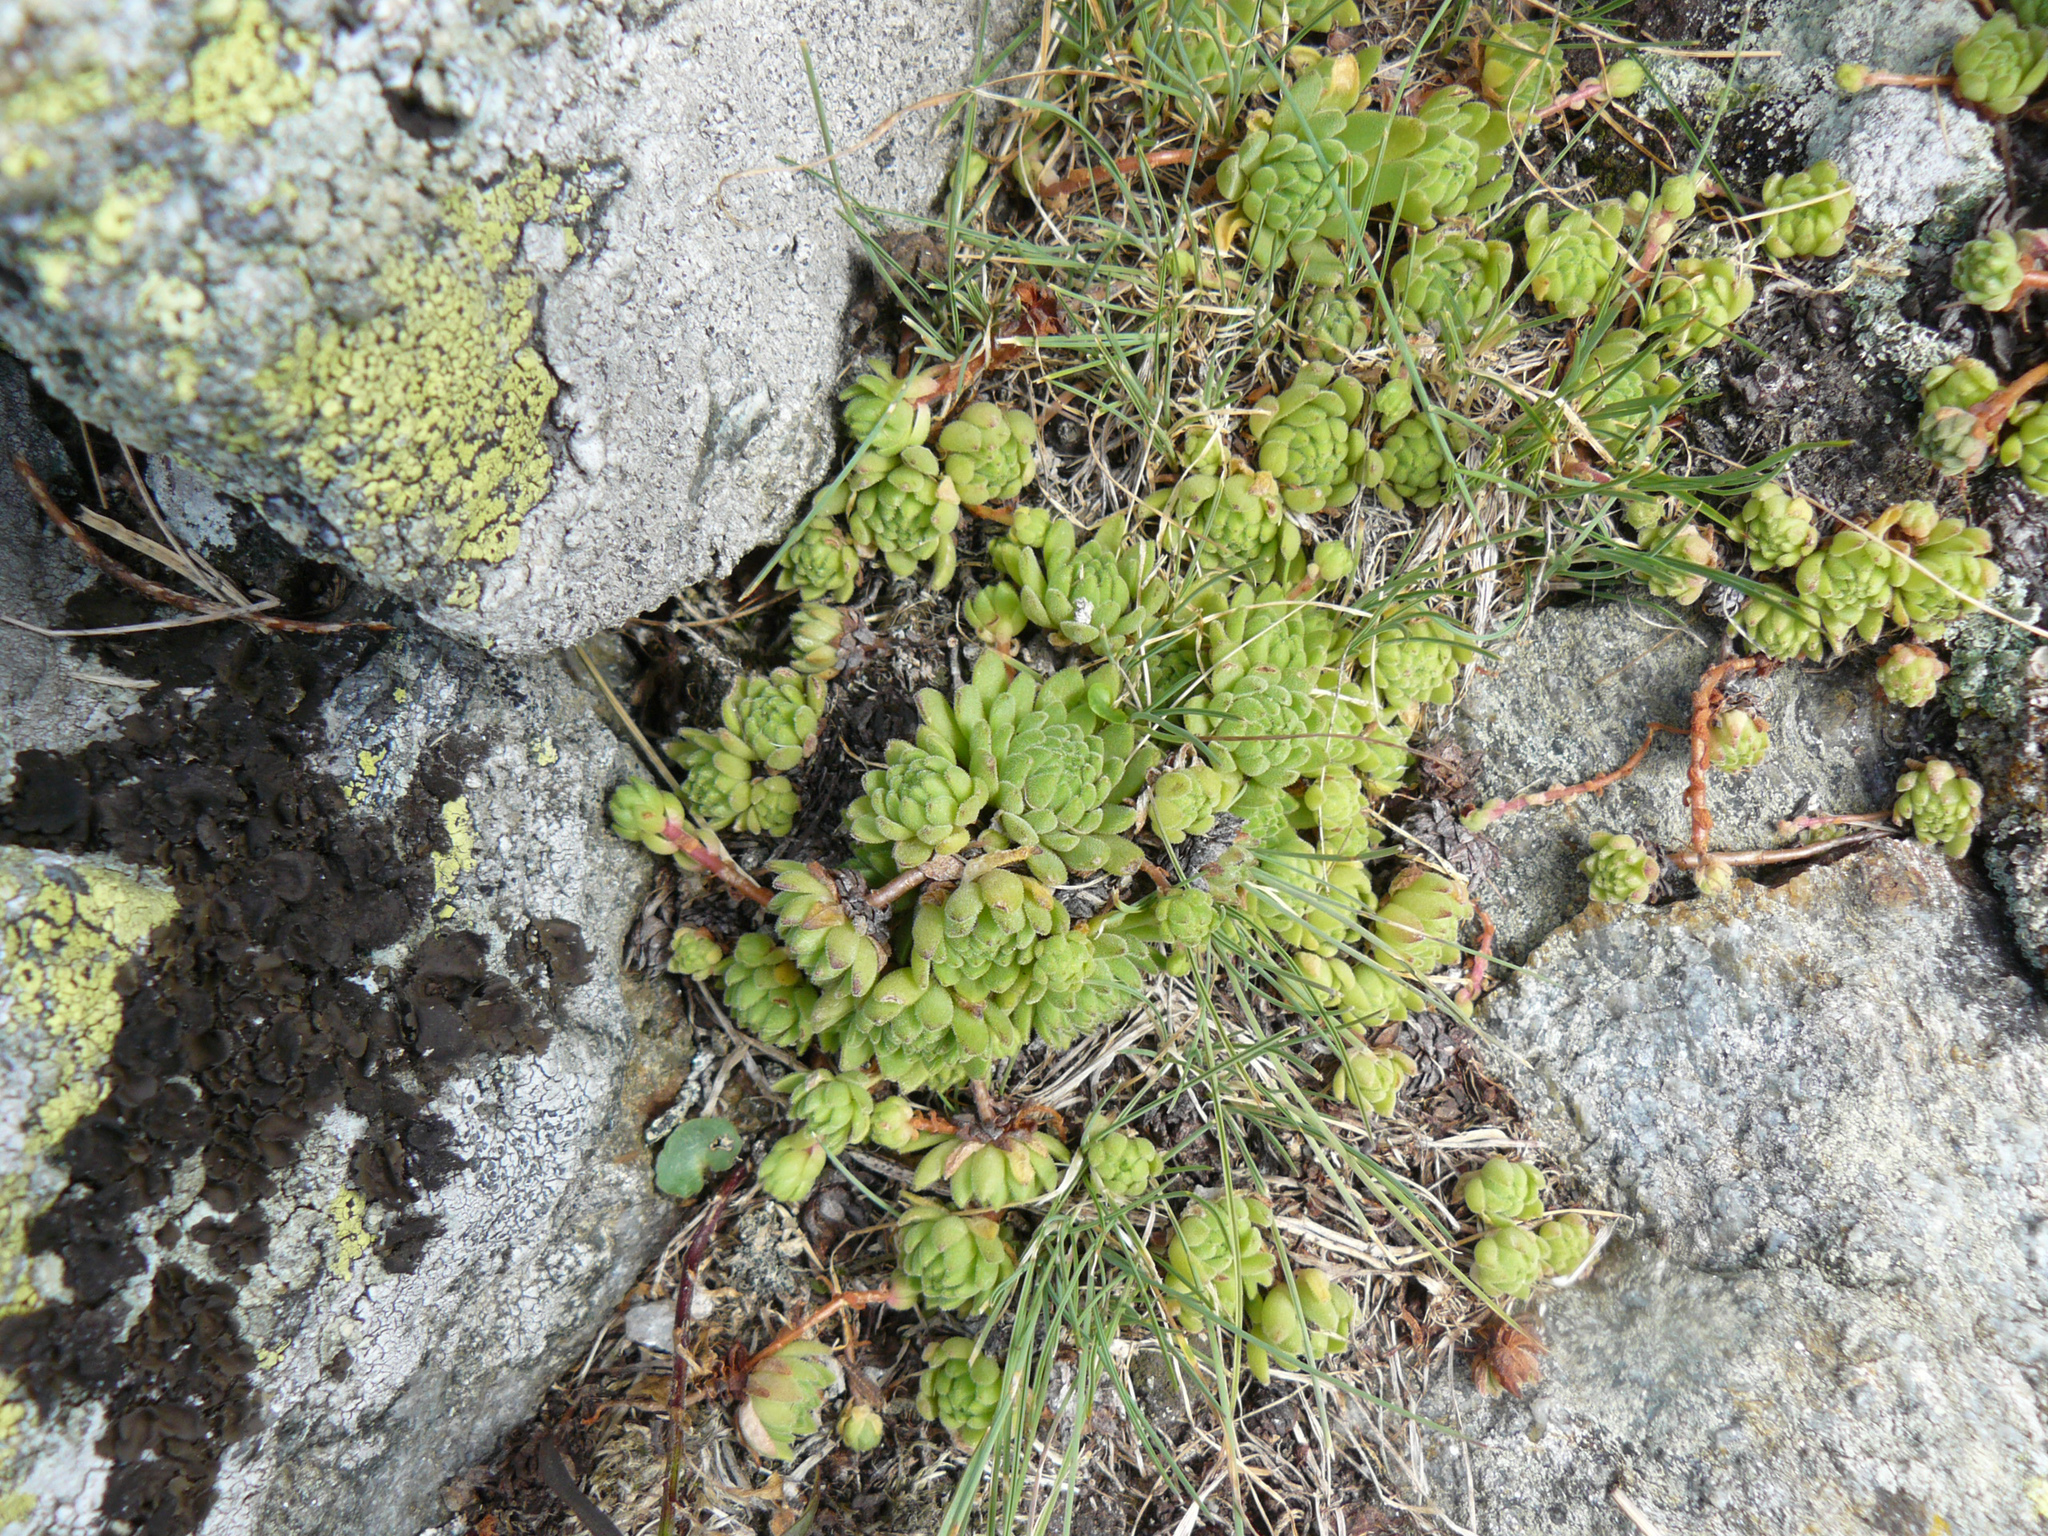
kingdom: Plantae
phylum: Tracheophyta
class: Magnoliopsida
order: Saxifragales
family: Crassulaceae
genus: Sempervivum
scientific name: Sempervivum montanum
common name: Mountain house-leek
